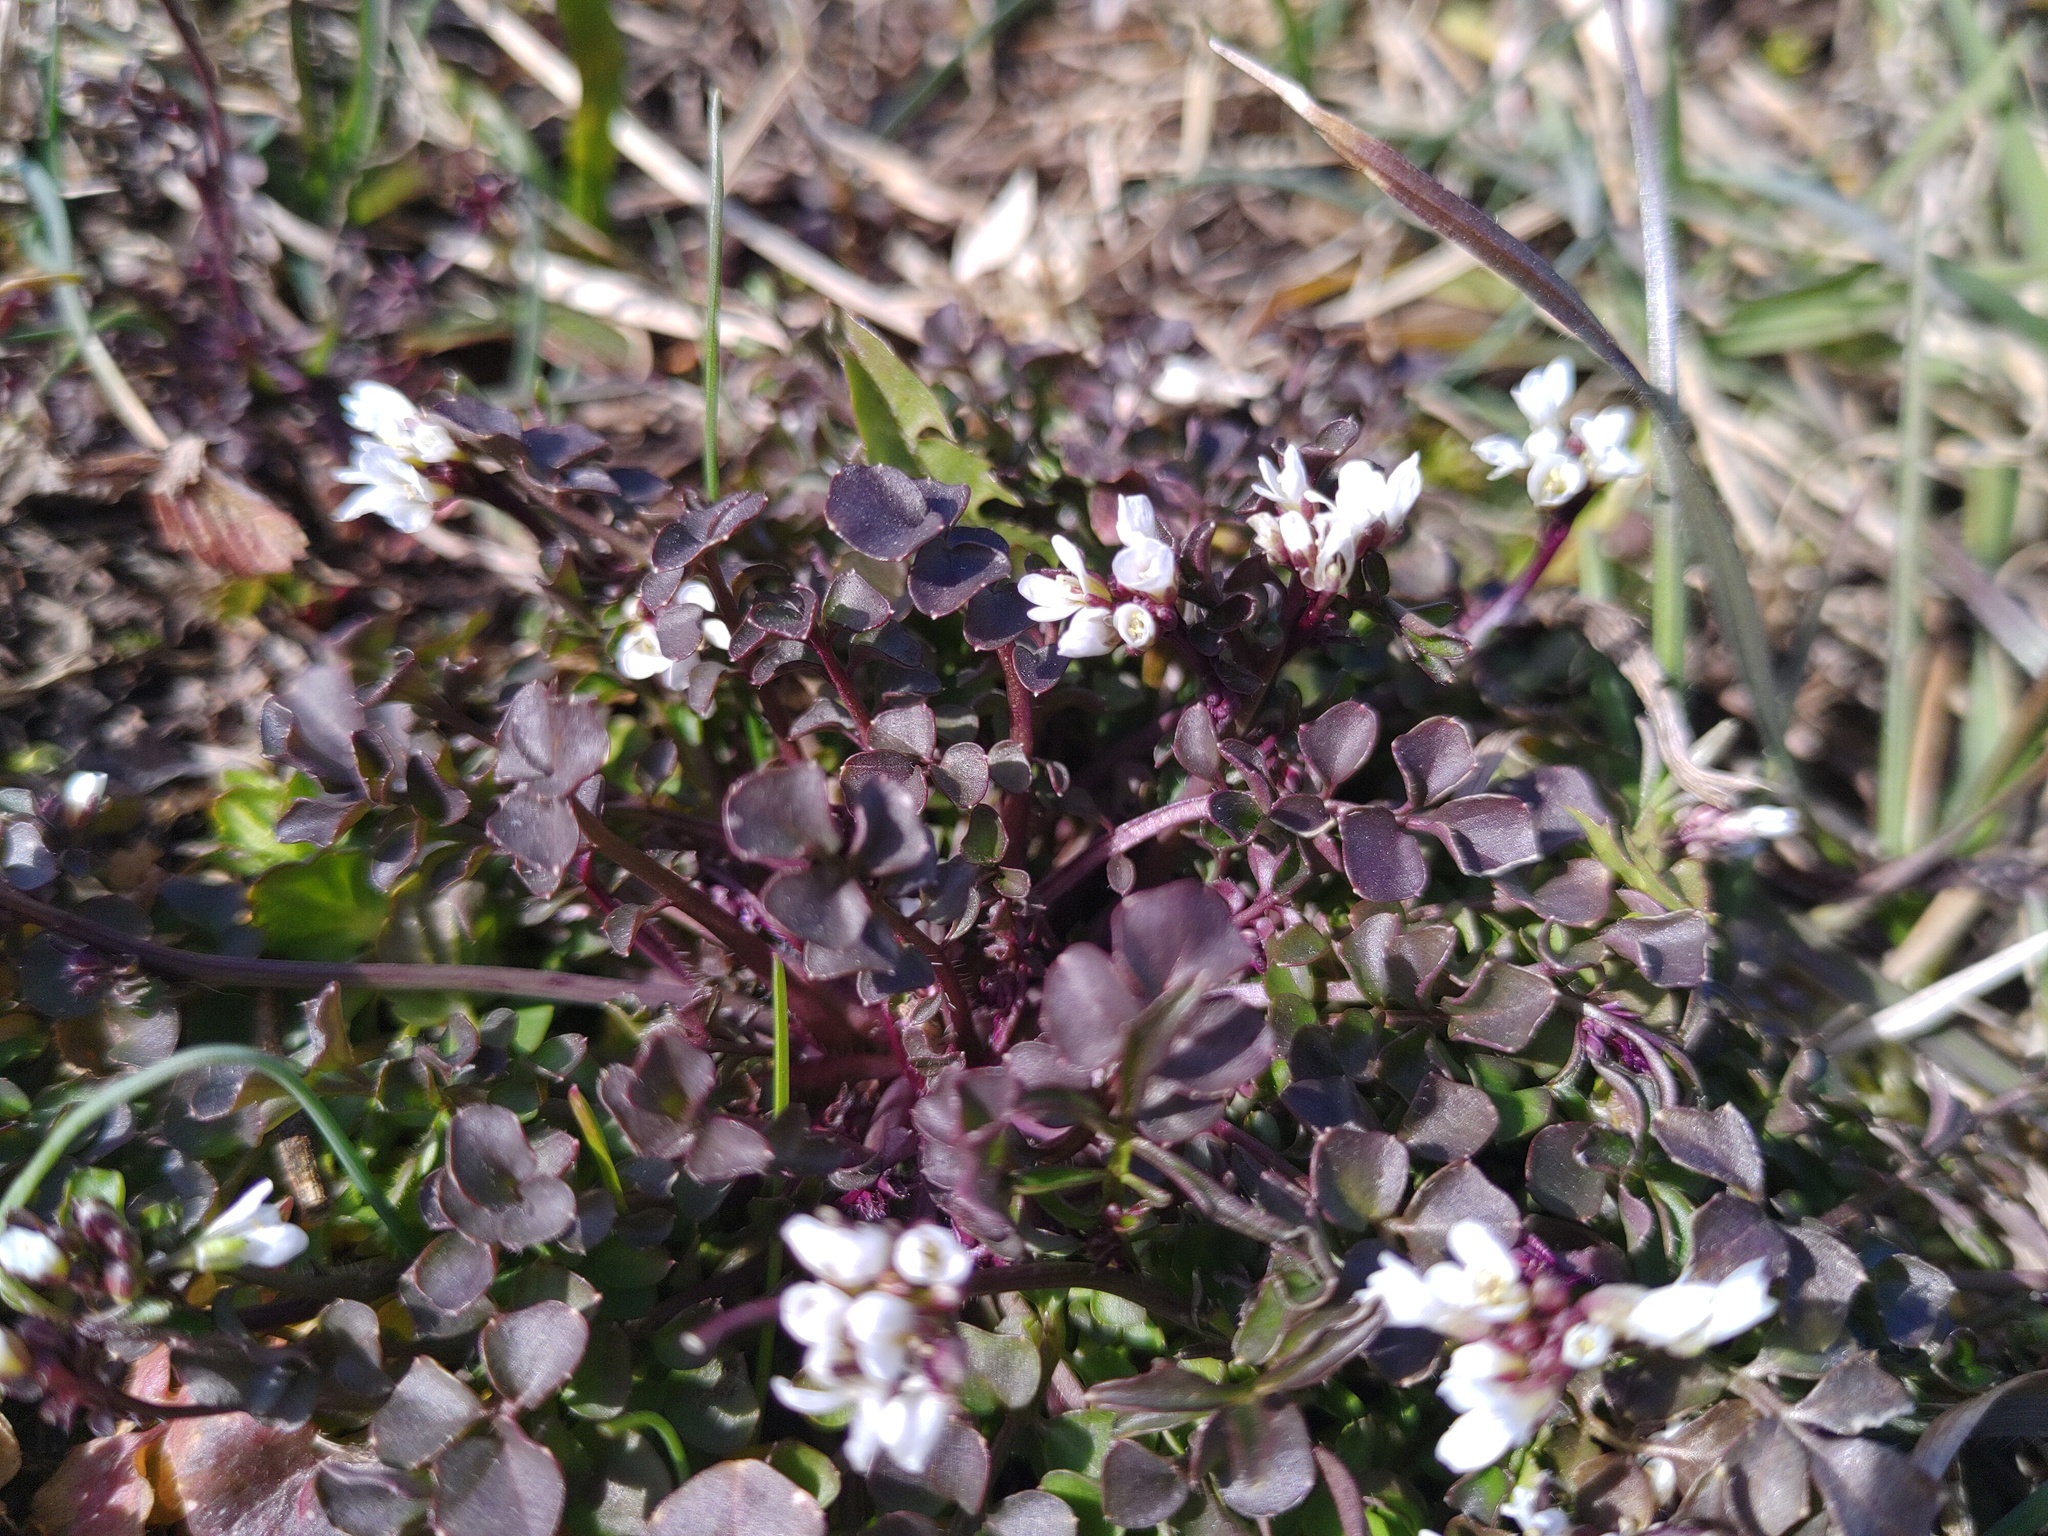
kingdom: Plantae
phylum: Tracheophyta
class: Magnoliopsida
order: Brassicales
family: Brassicaceae
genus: Cardamine
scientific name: Cardamine hirsuta
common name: Hairy bittercress
